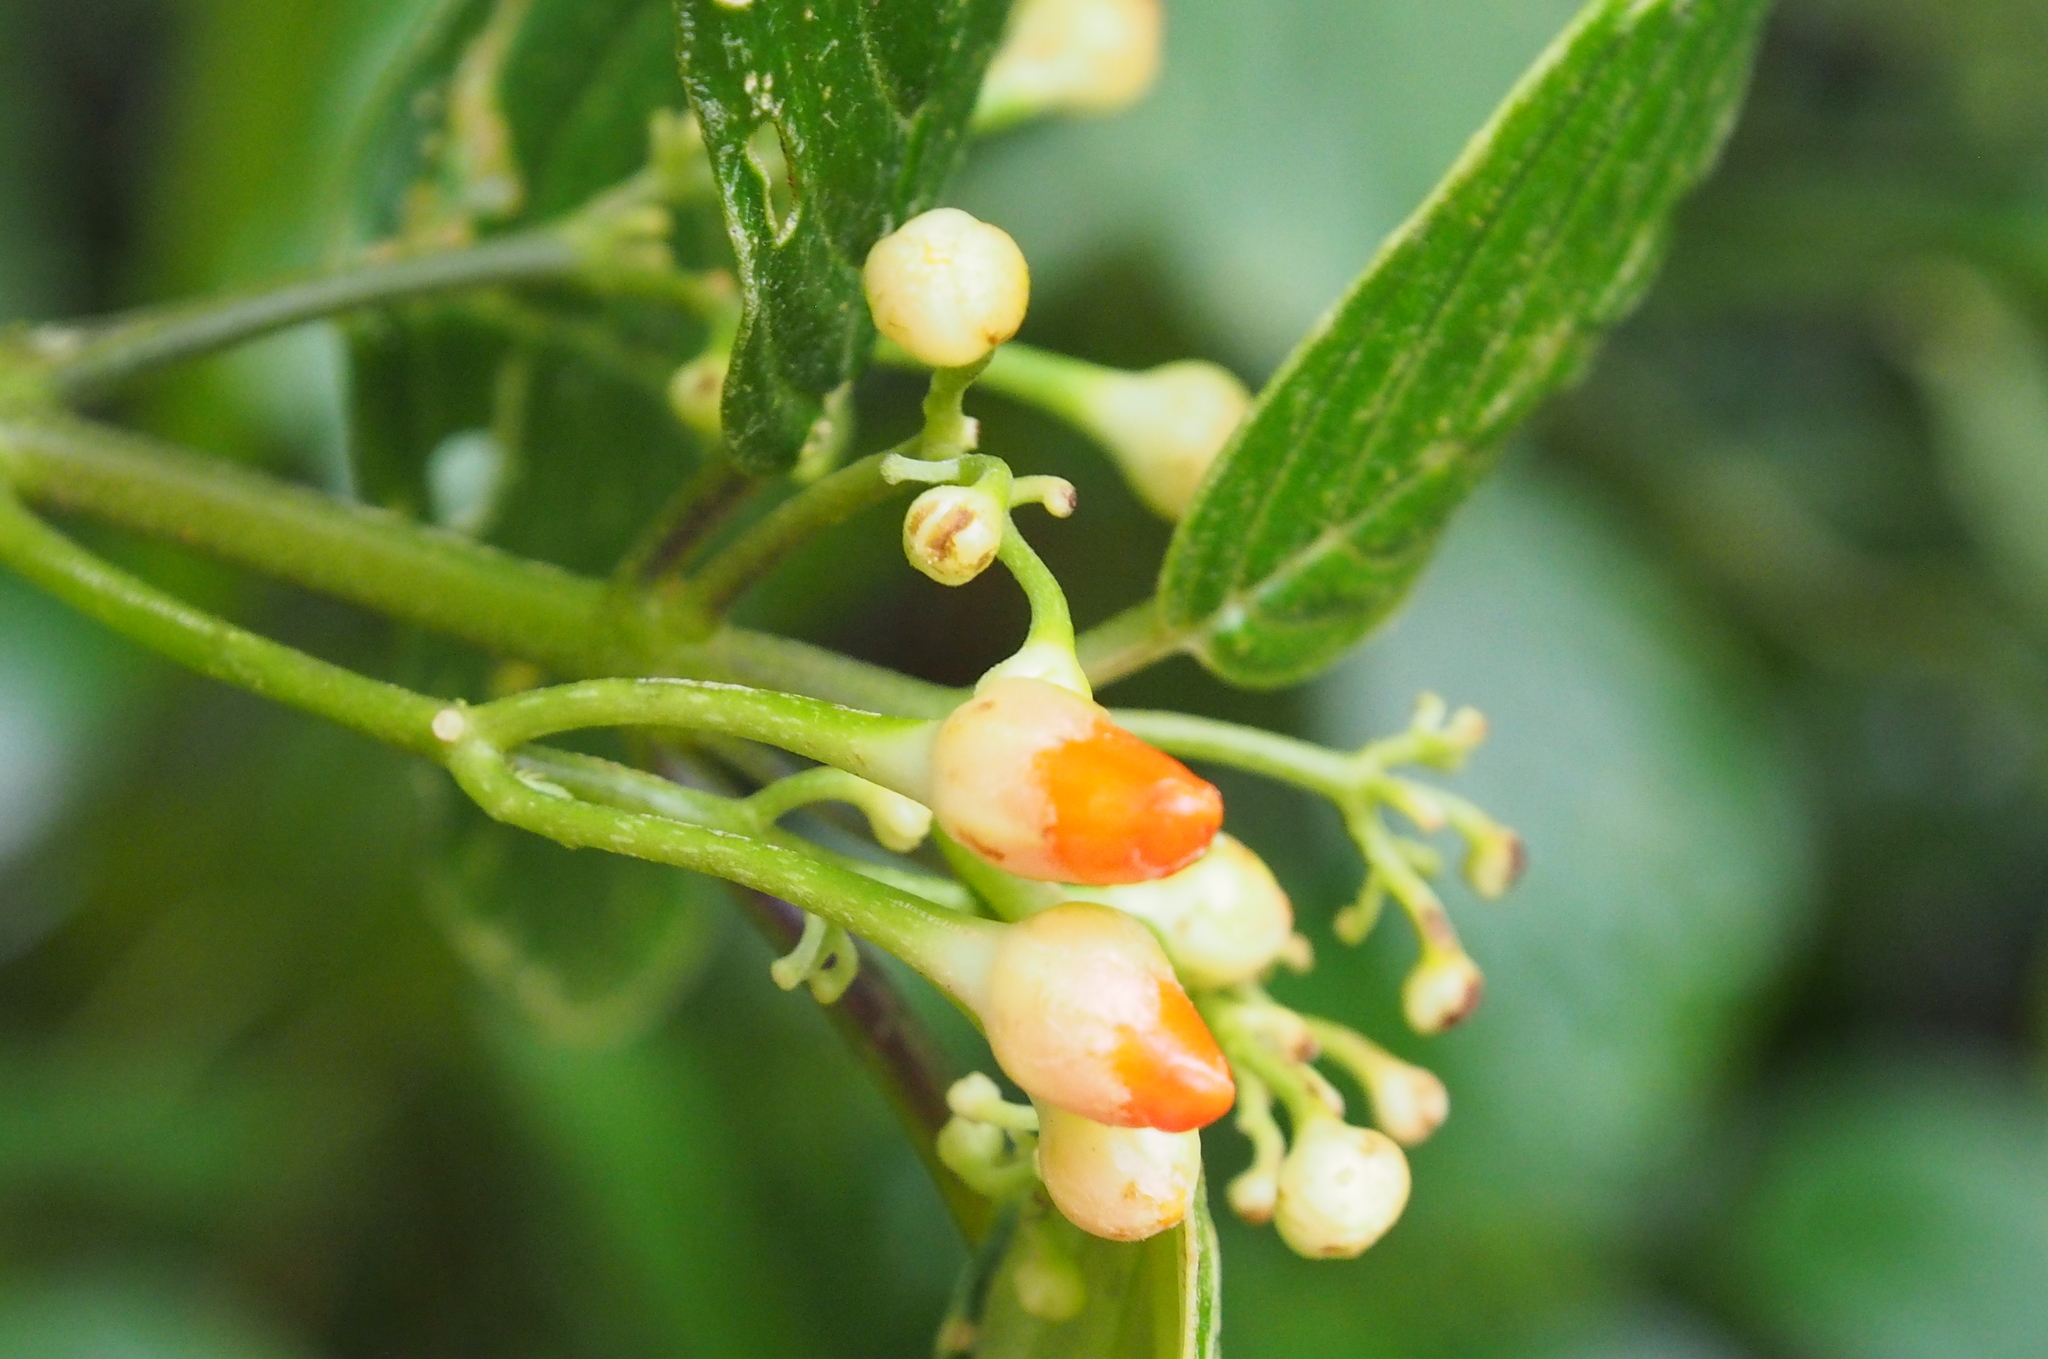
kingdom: Plantae
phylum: Tracheophyta
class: Magnoliopsida
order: Lamiales
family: Gesneriaceae
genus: Besleria
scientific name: Besleria triflora
